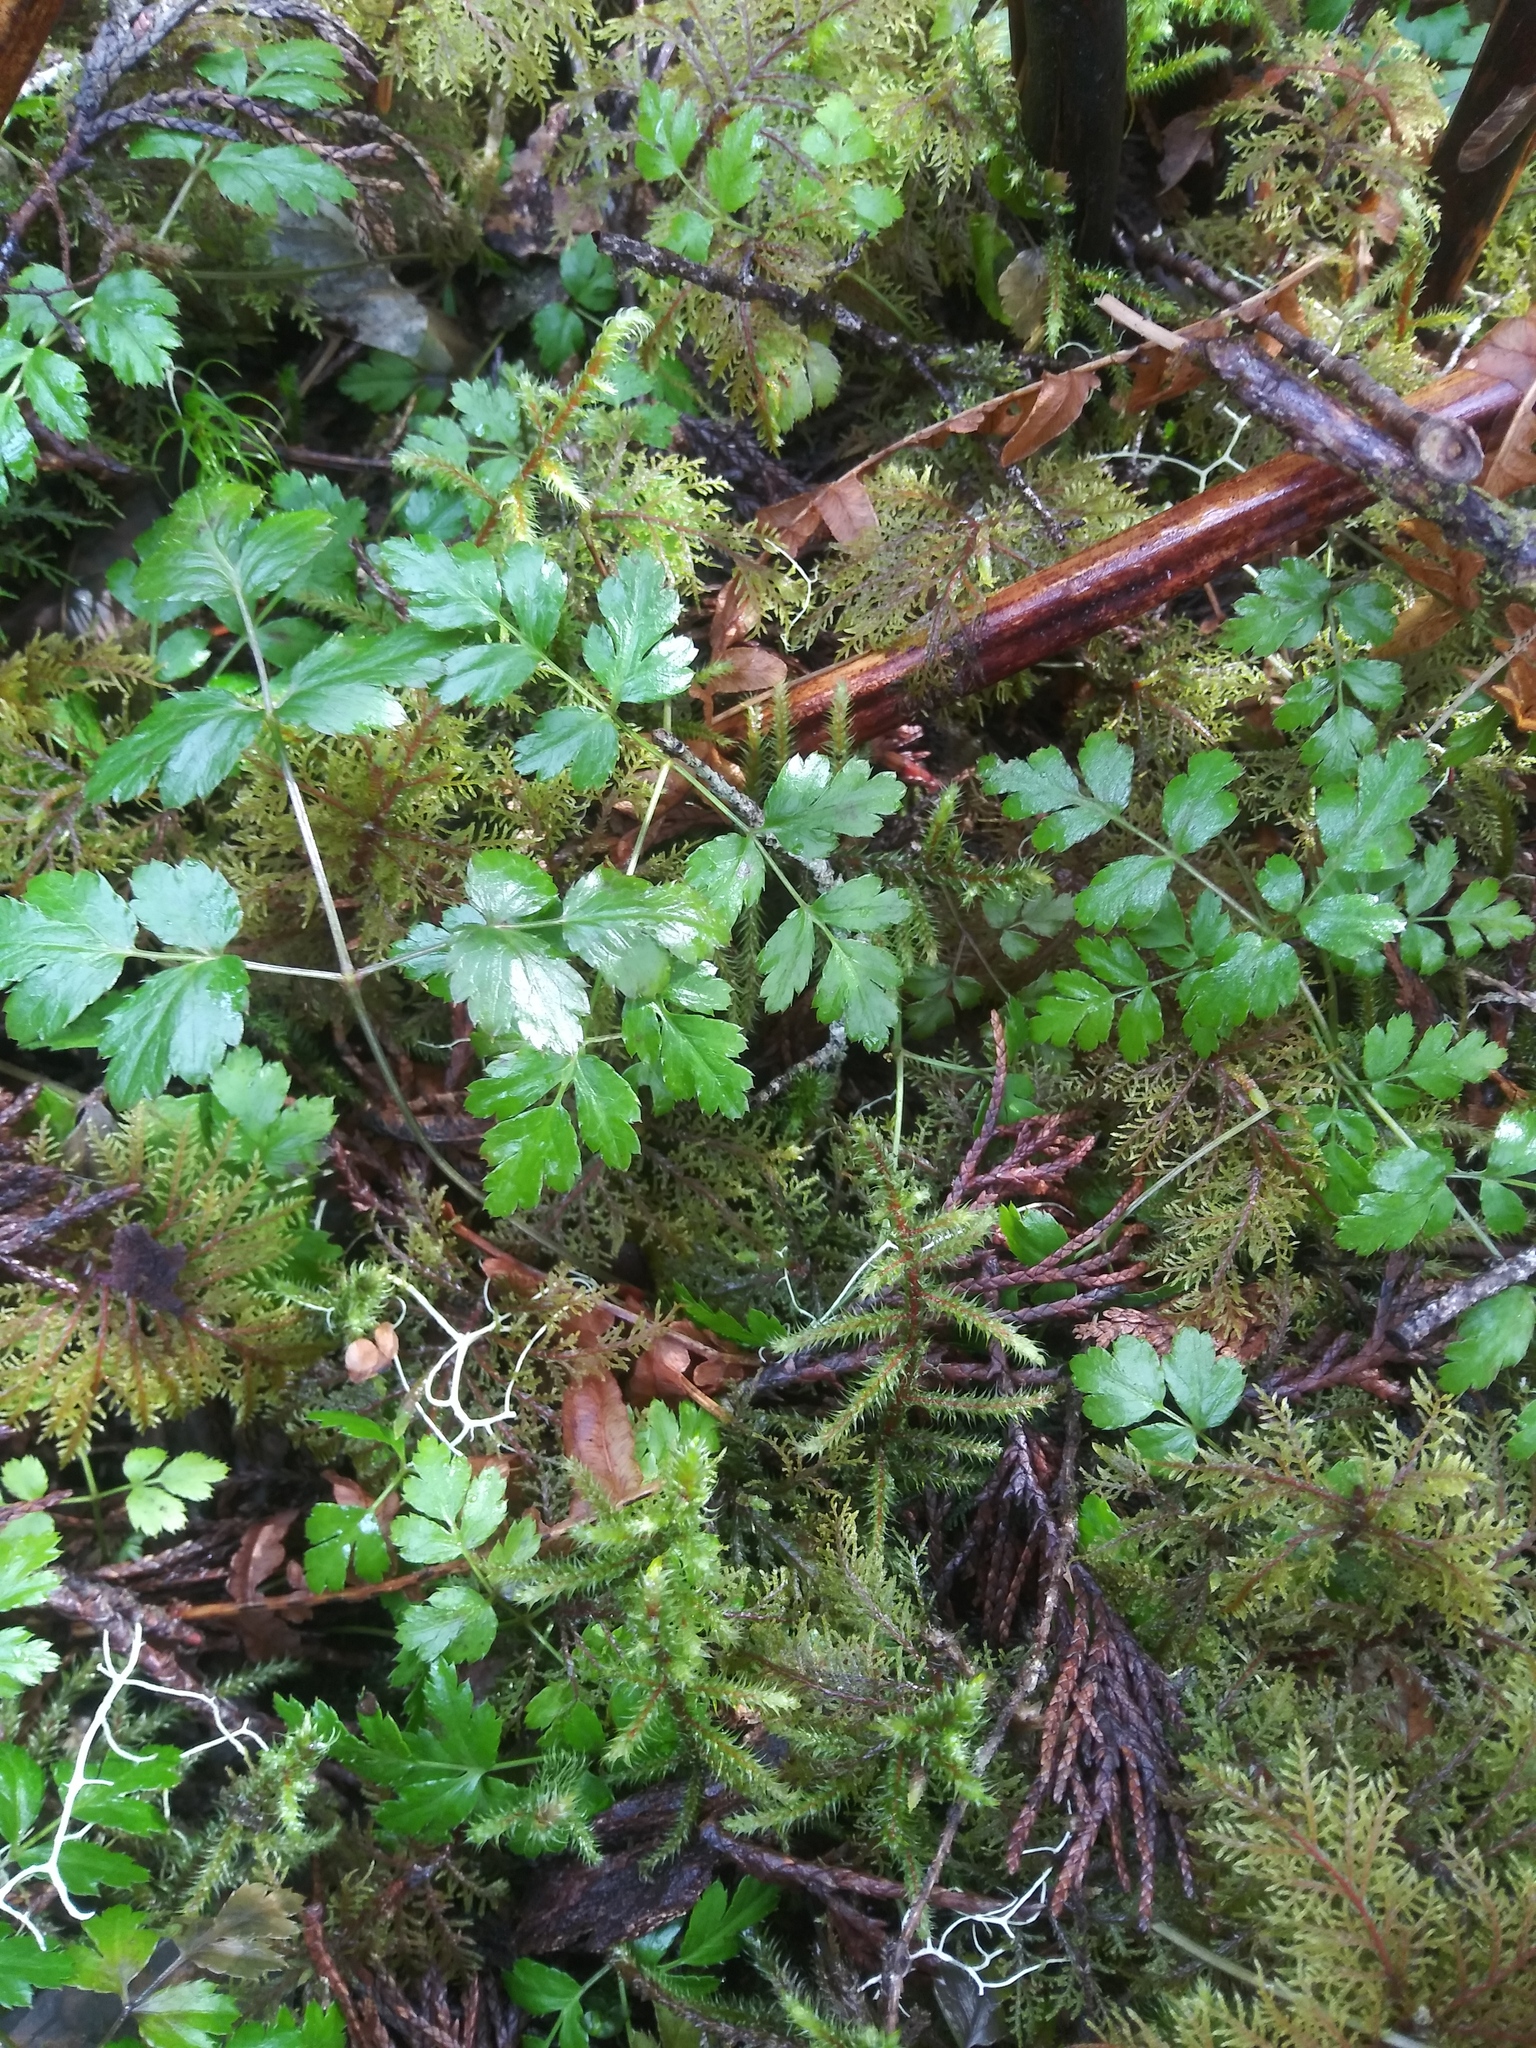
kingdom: Plantae
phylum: Tracheophyta
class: Magnoliopsida
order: Ranunculales
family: Ranunculaceae
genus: Coptis
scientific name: Coptis aspleniifolia
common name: Fern-leaved goldthread
